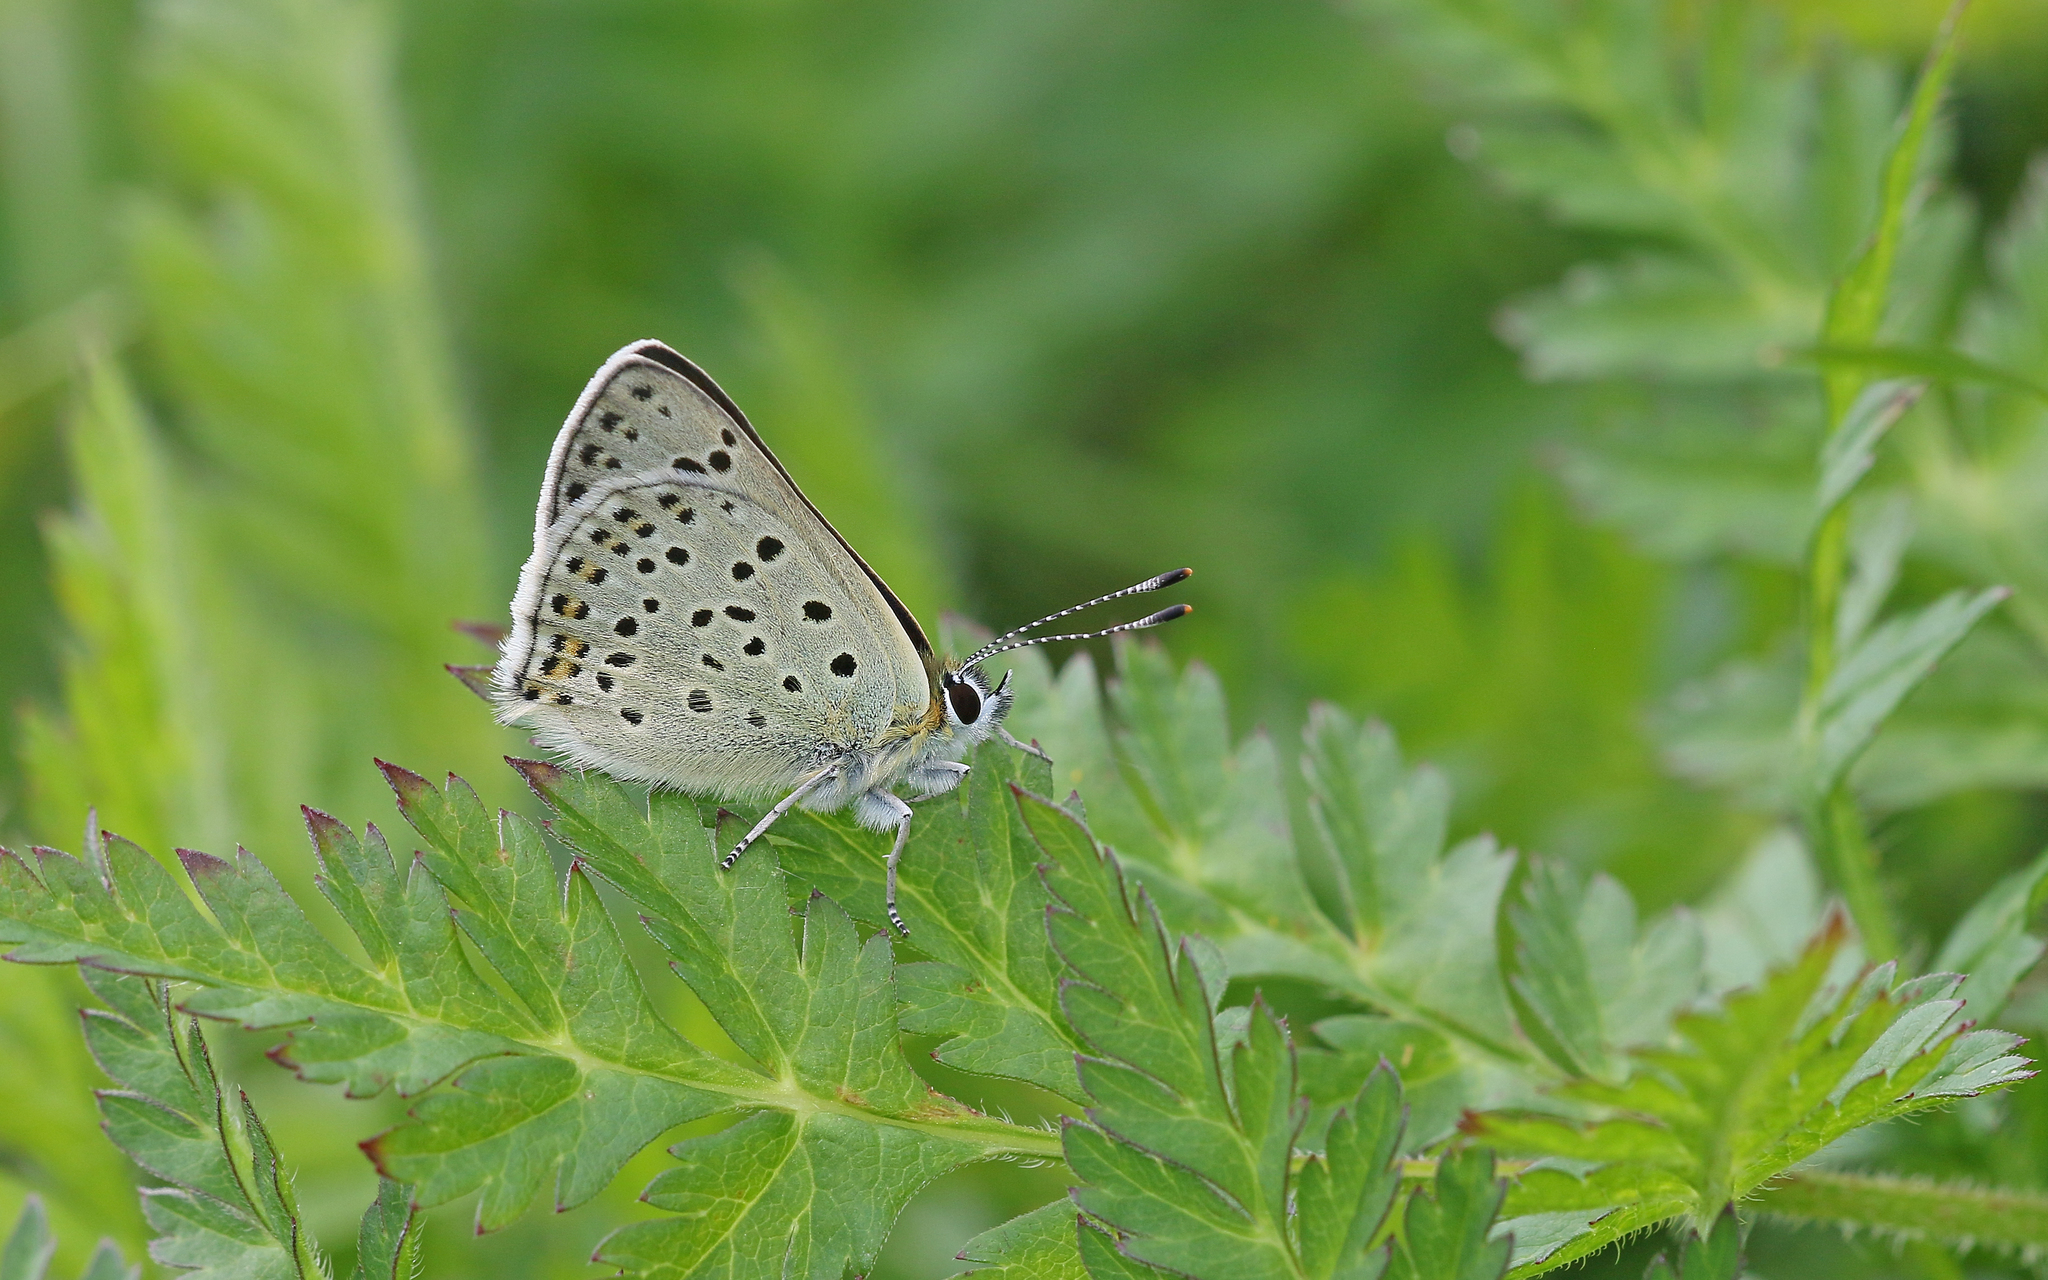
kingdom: Animalia
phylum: Arthropoda
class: Insecta
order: Lepidoptera
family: Lycaenidae
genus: Loweia
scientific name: Loweia tityrus
